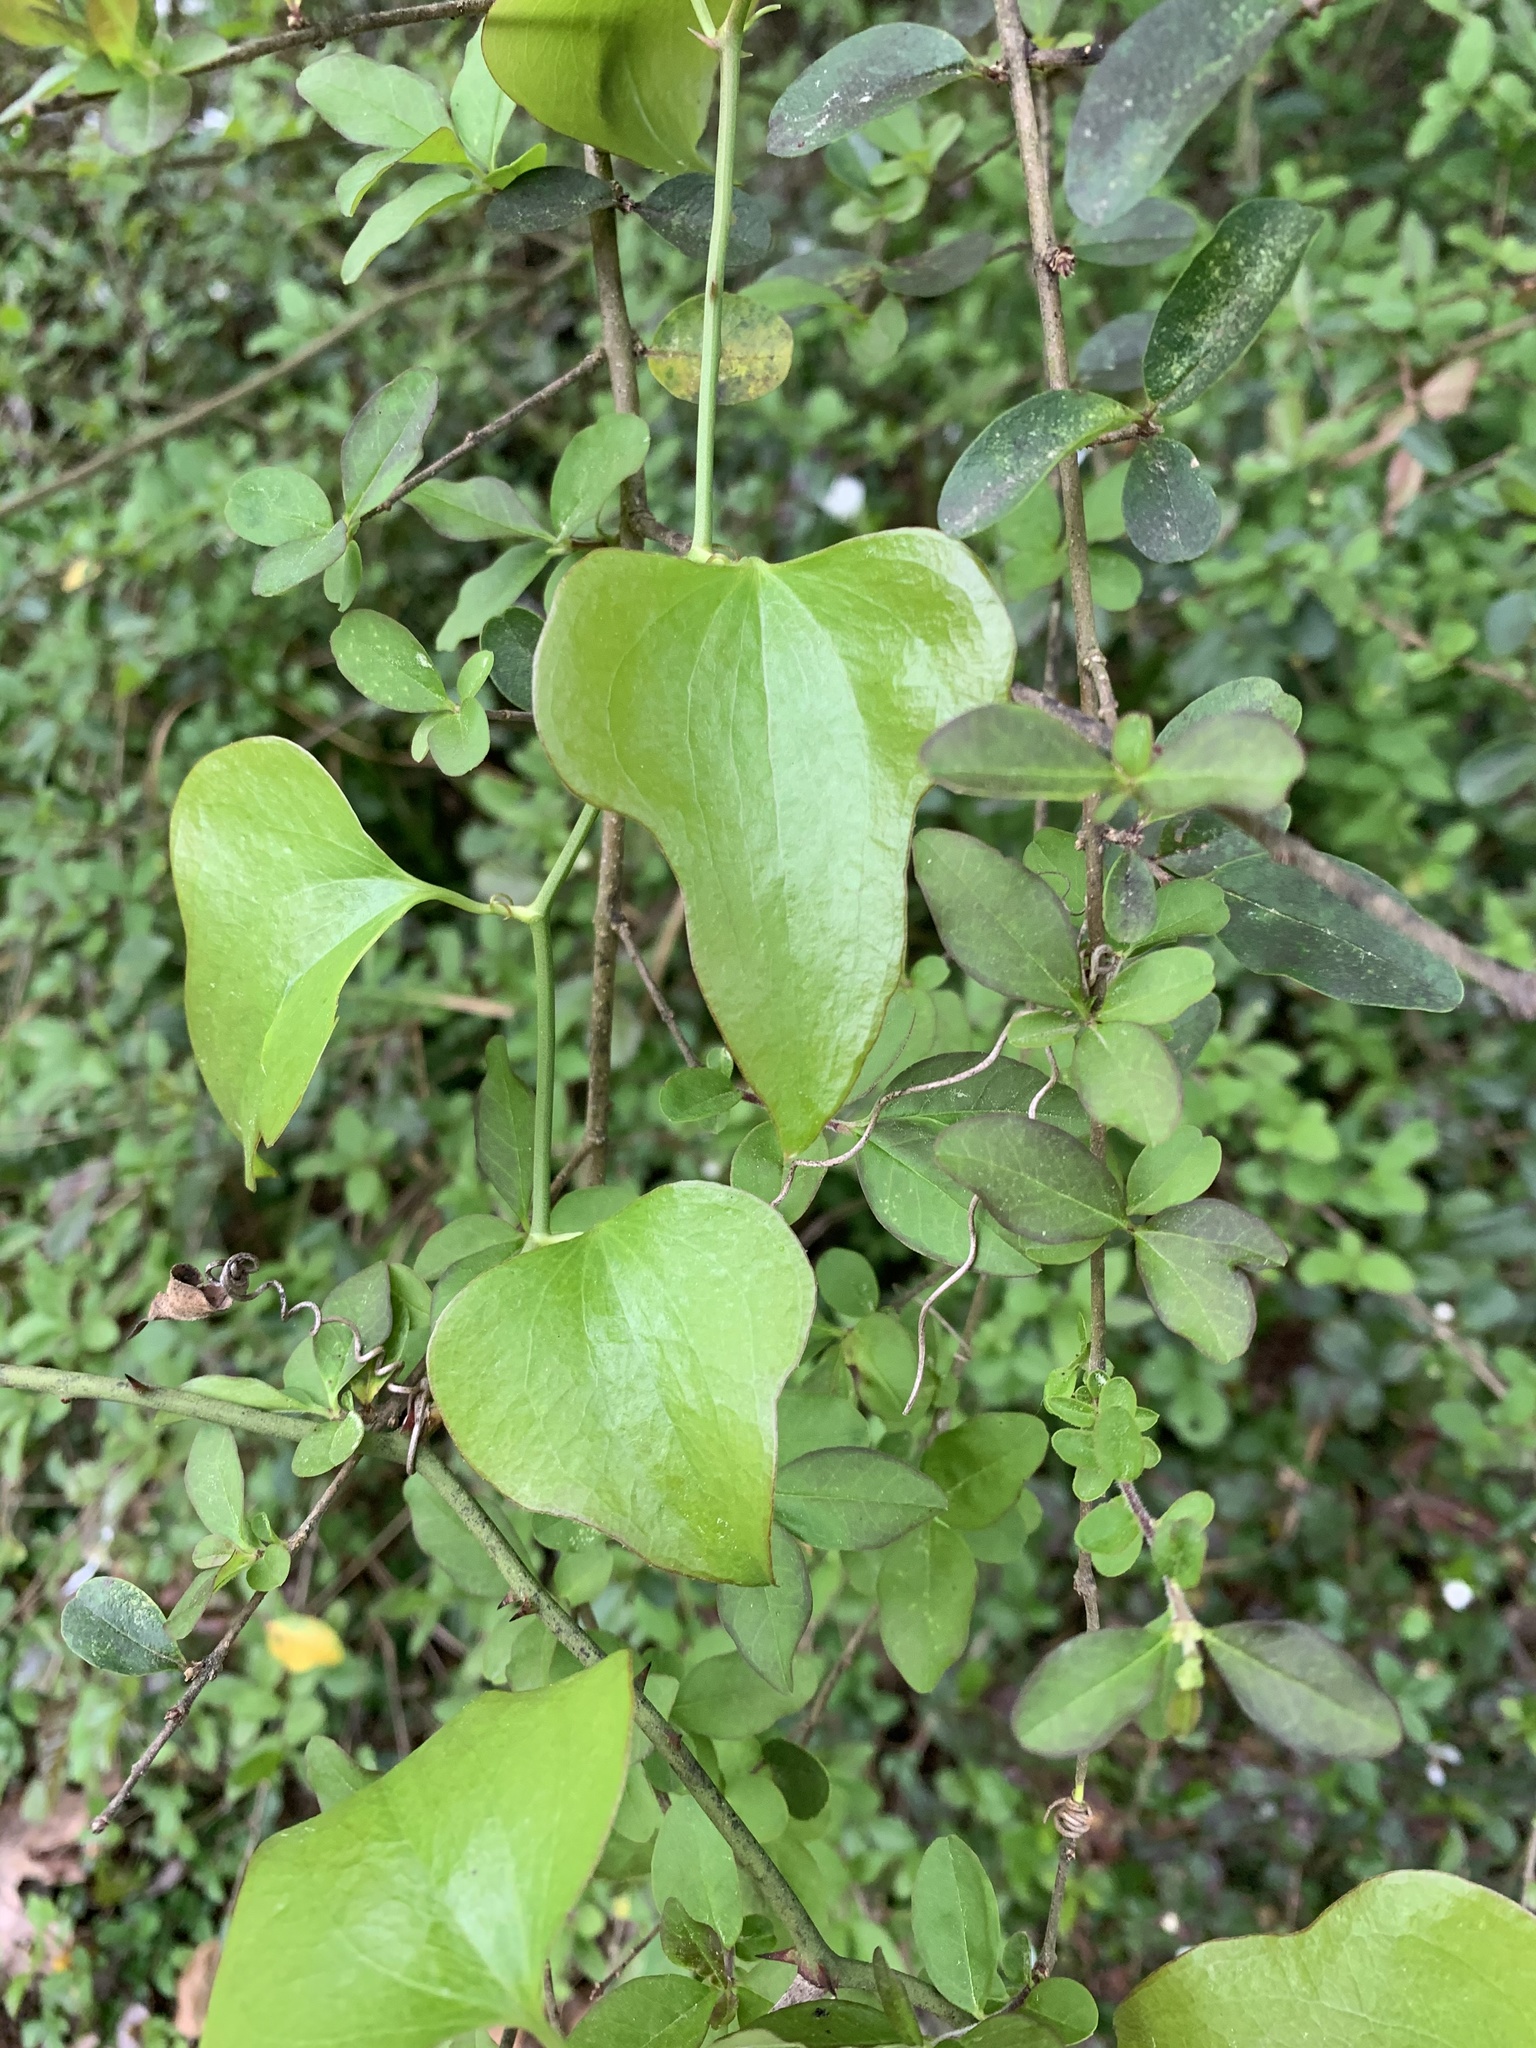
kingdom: Plantae
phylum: Tracheophyta
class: Liliopsida
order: Liliales
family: Smilacaceae
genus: Smilax
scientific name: Smilax bona-nox
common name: Catbrier
